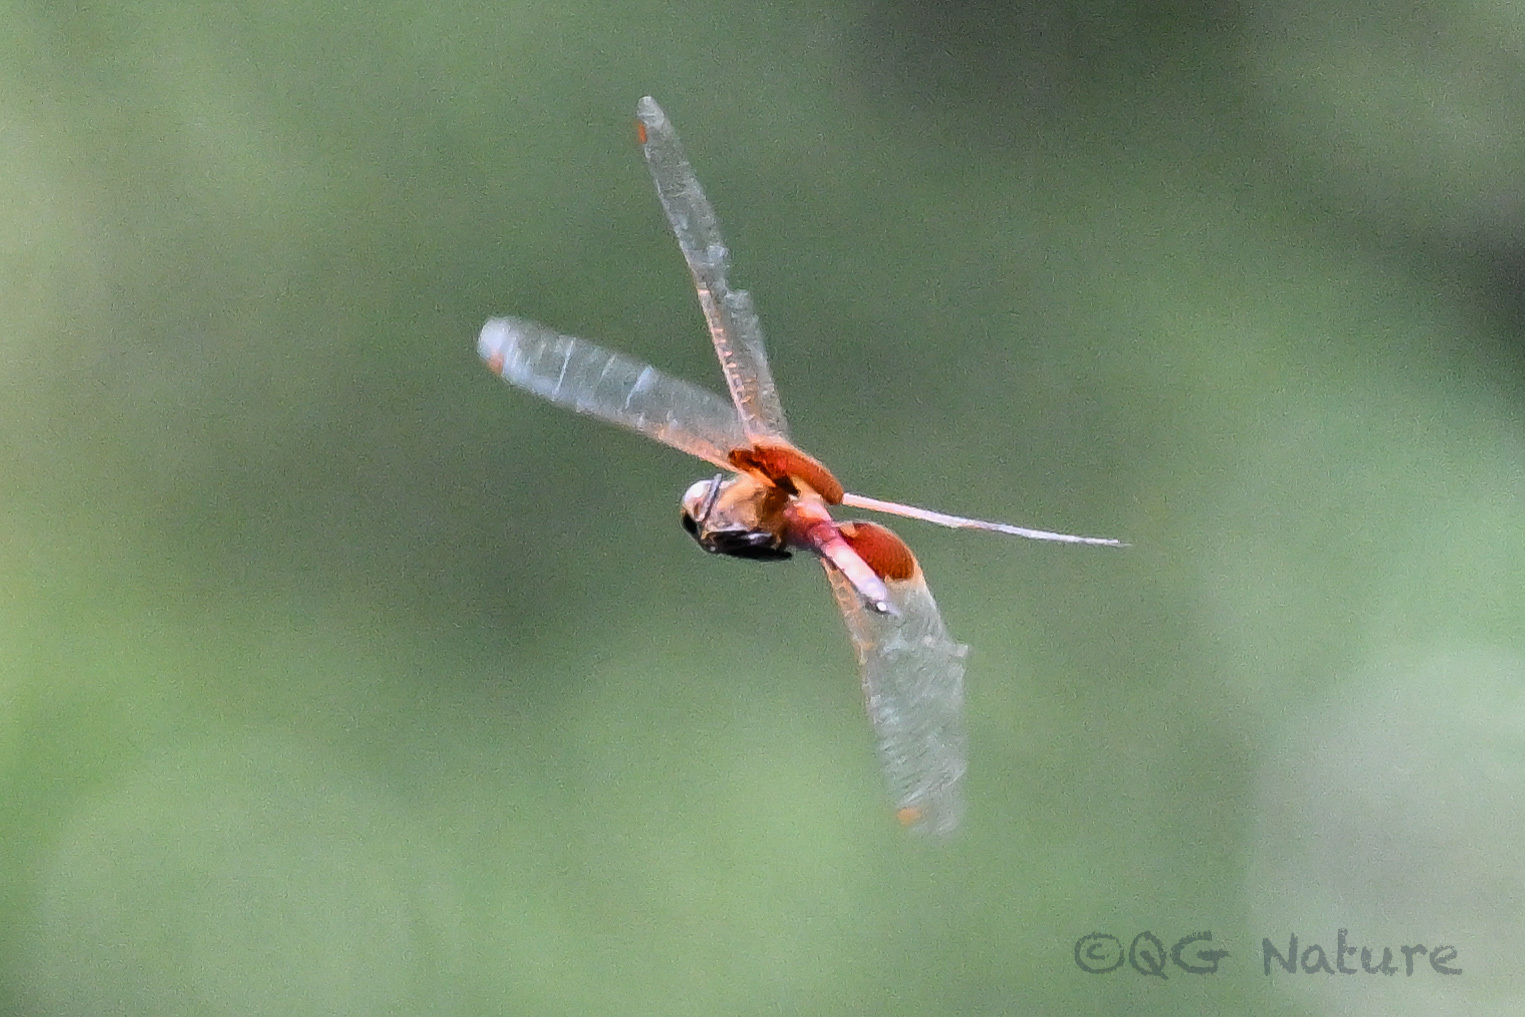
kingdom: Animalia
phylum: Arthropoda
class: Insecta
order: Odonata
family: Libellulidae
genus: Tramea
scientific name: Tramea virginia
